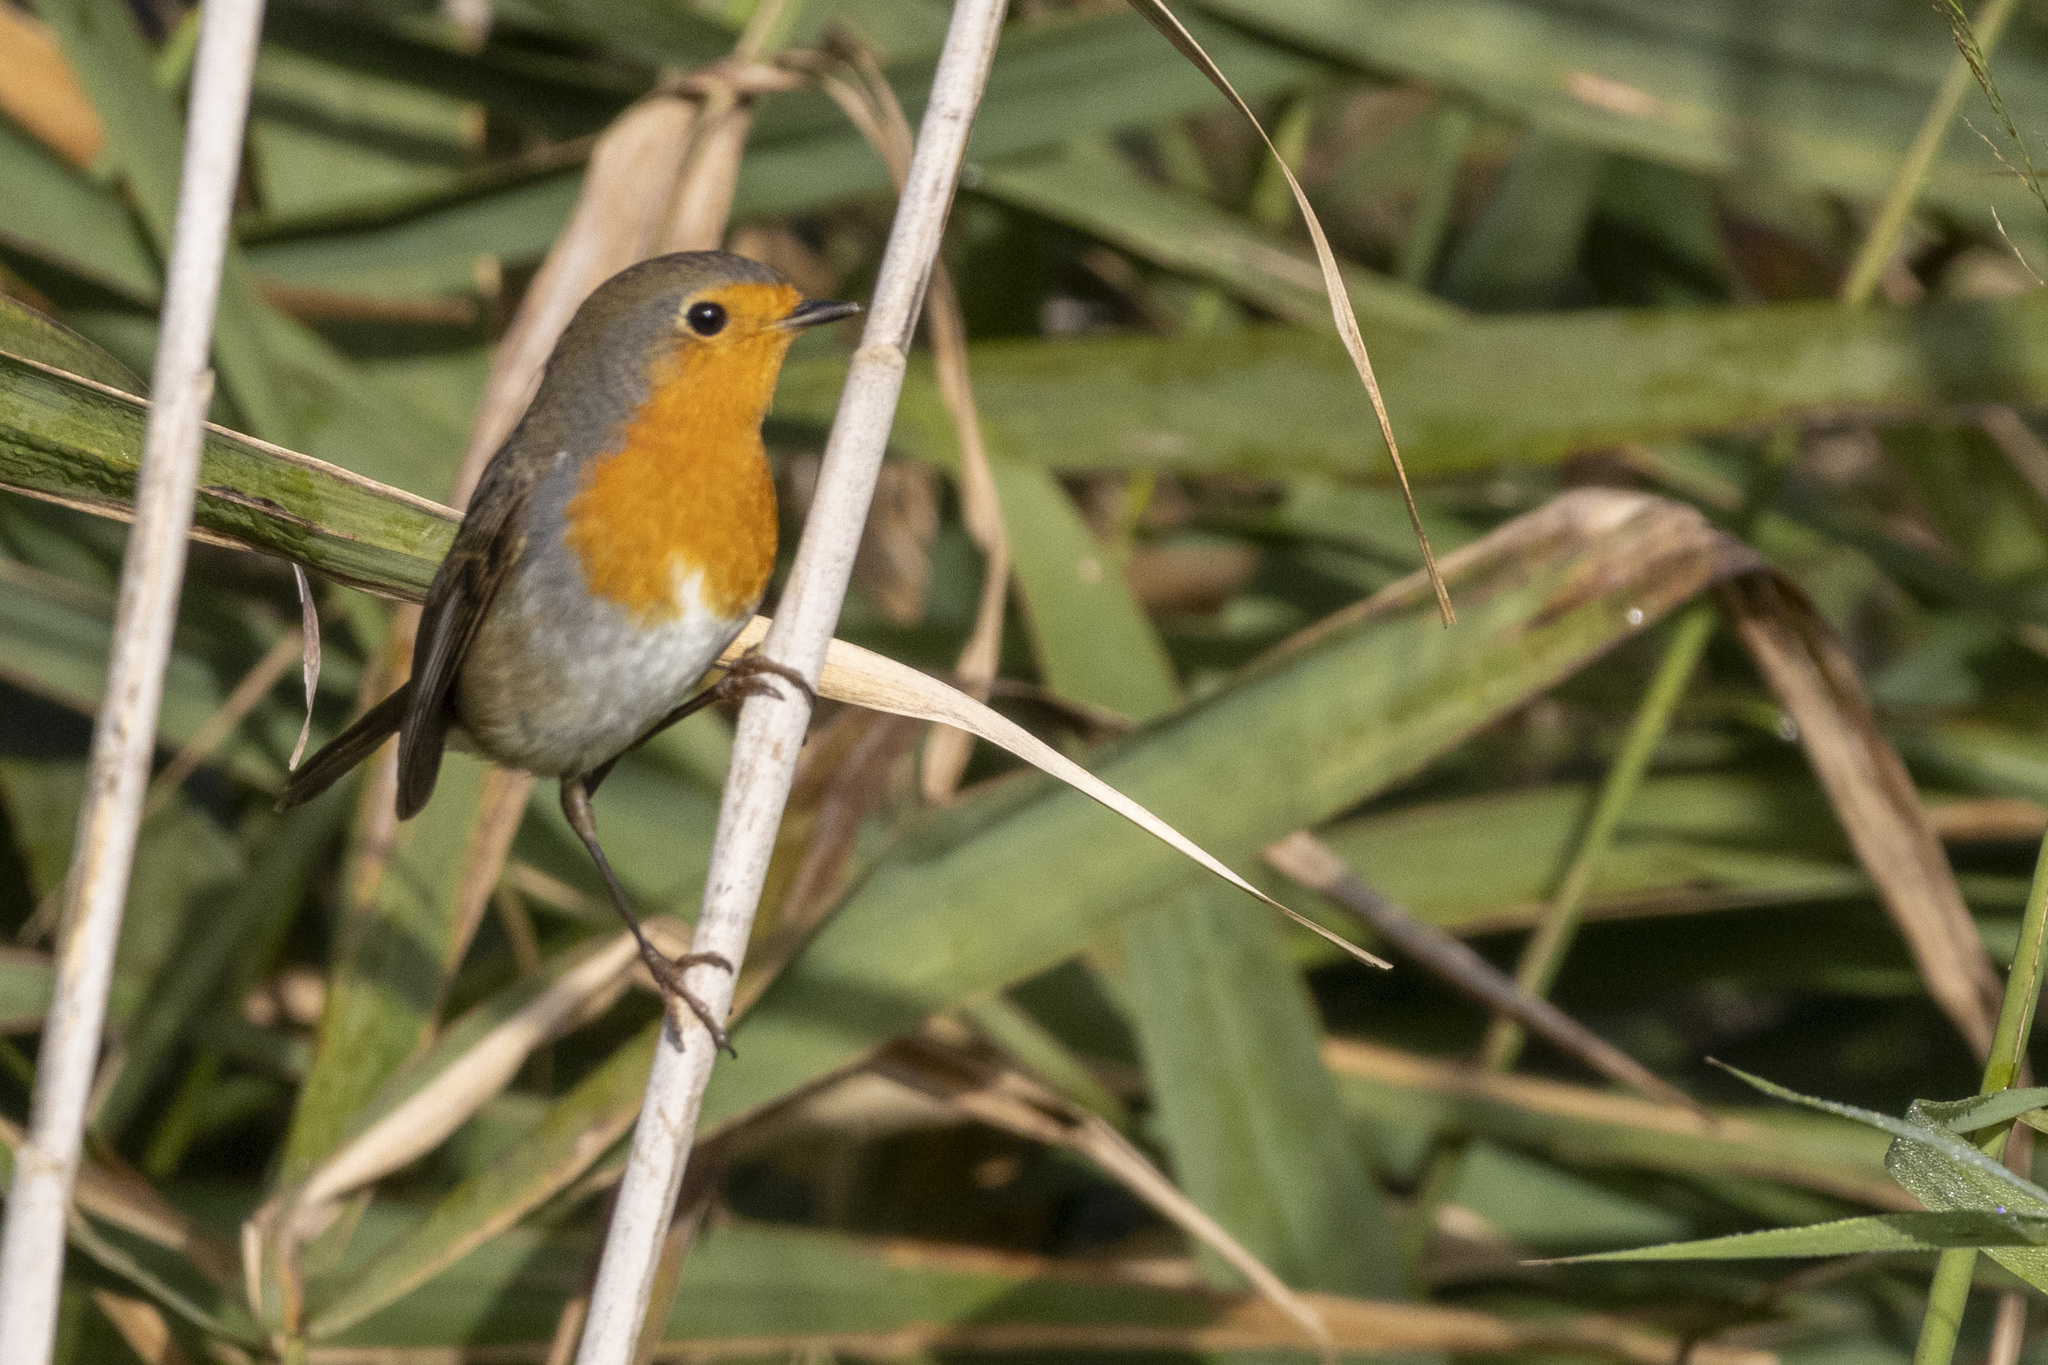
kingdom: Animalia
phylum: Chordata
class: Aves
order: Passeriformes
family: Muscicapidae
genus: Erithacus
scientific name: Erithacus rubecula
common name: European robin
